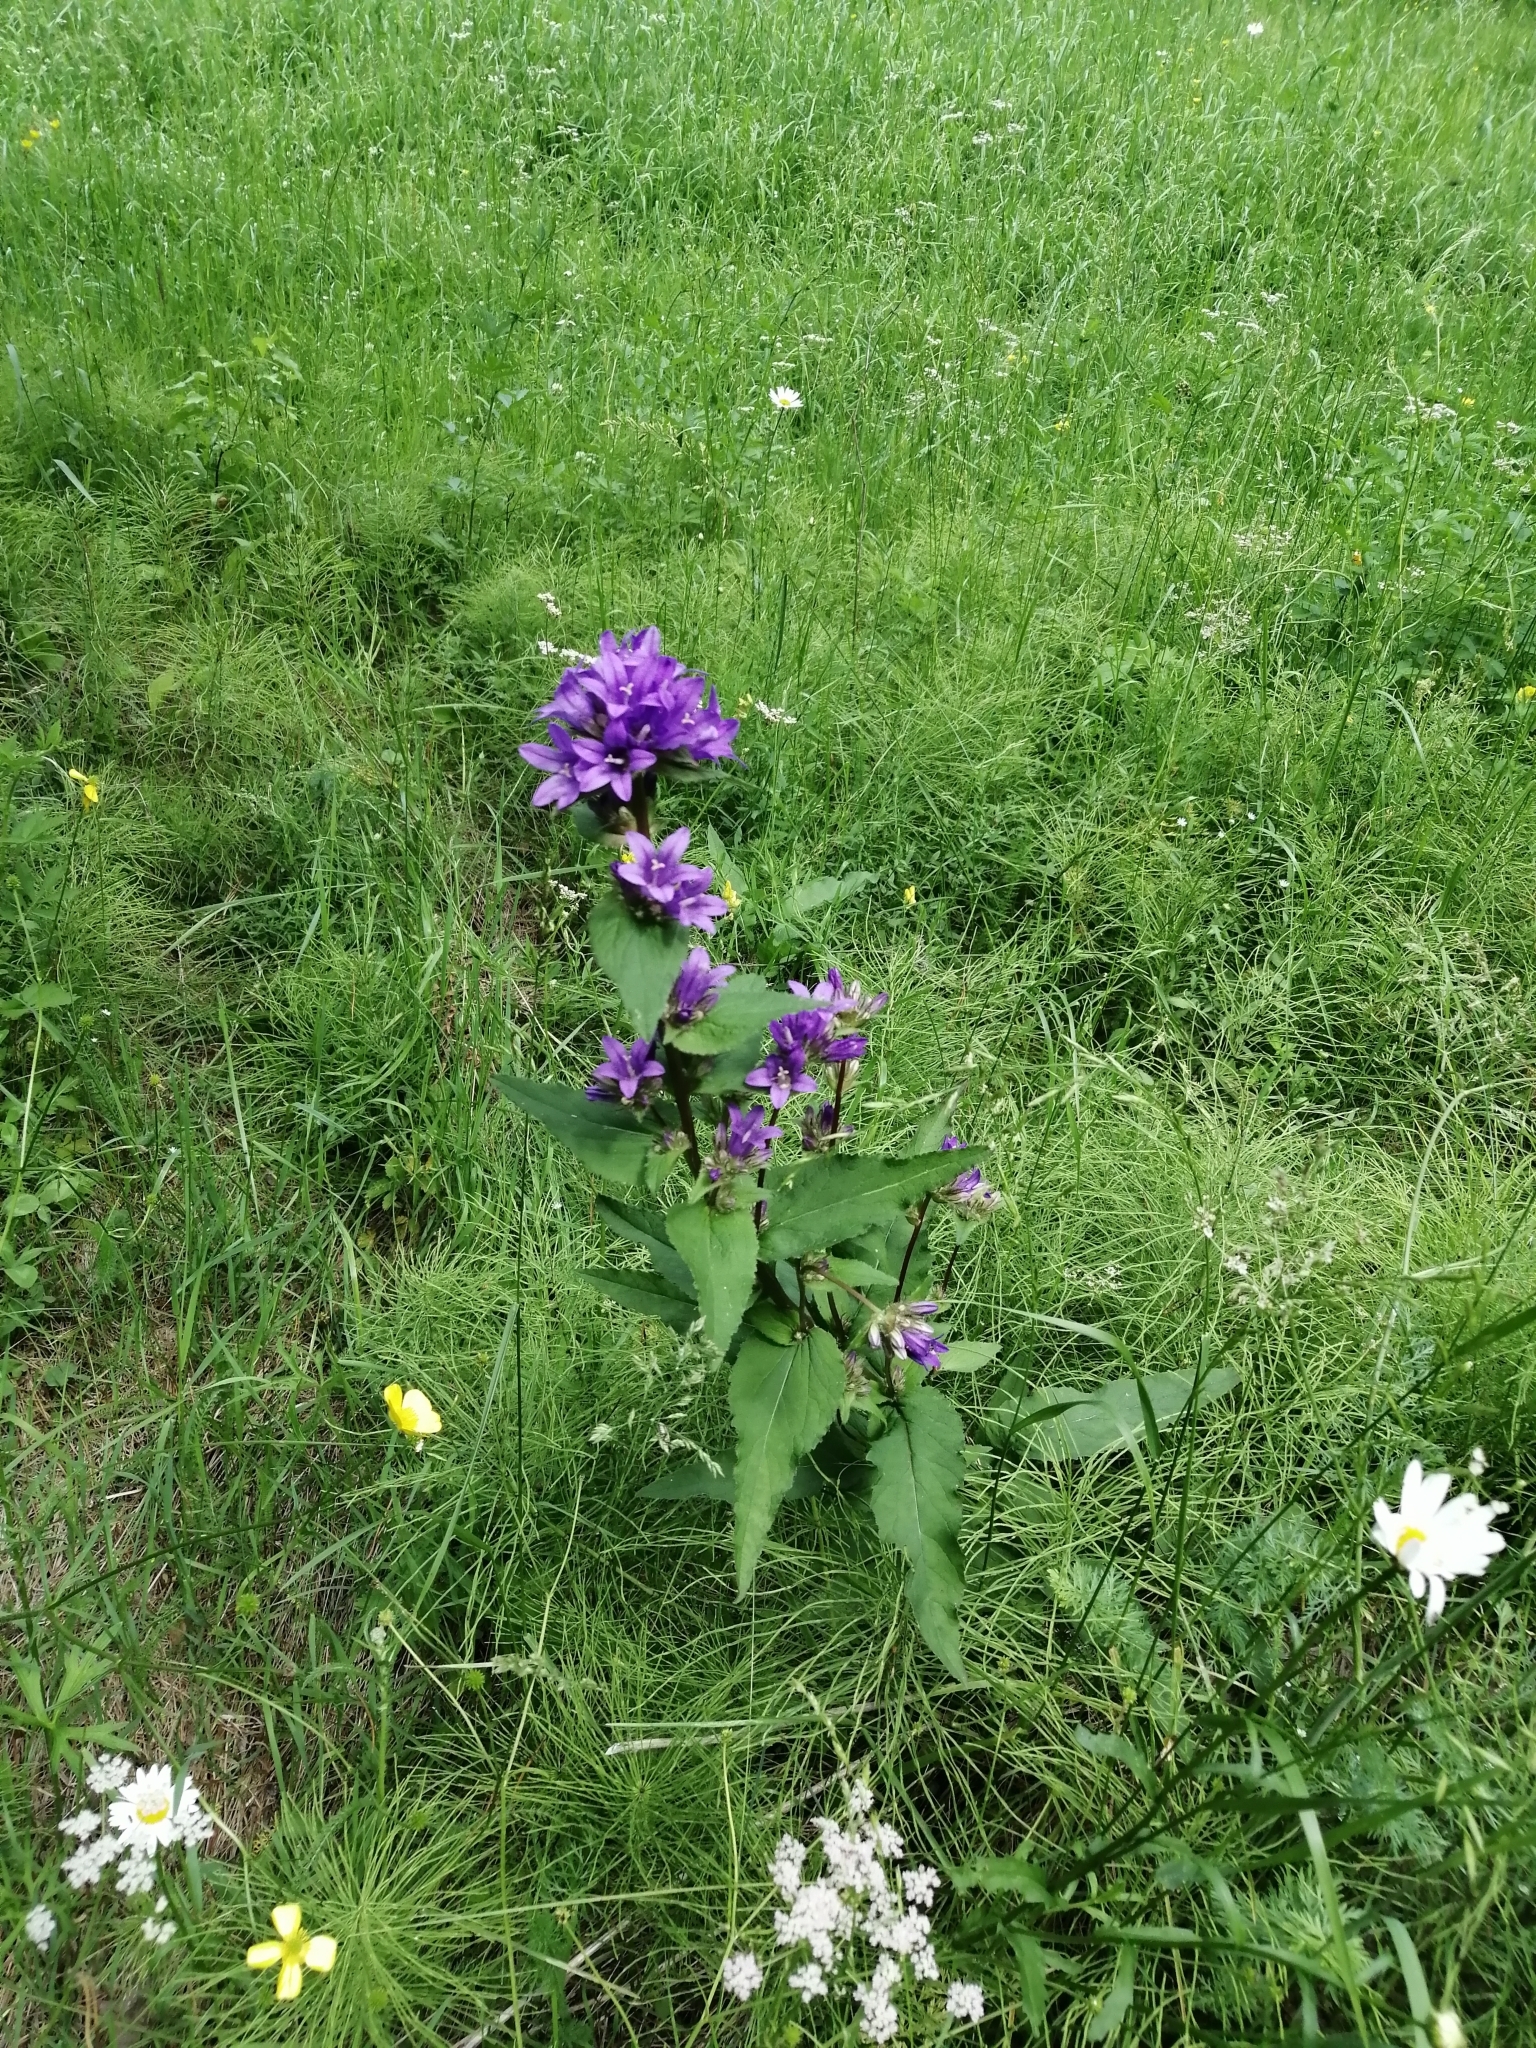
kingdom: Plantae
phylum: Tracheophyta
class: Magnoliopsida
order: Asterales
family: Campanulaceae
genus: Campanula
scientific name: Campanula glomerata
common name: Clustered bellflower
